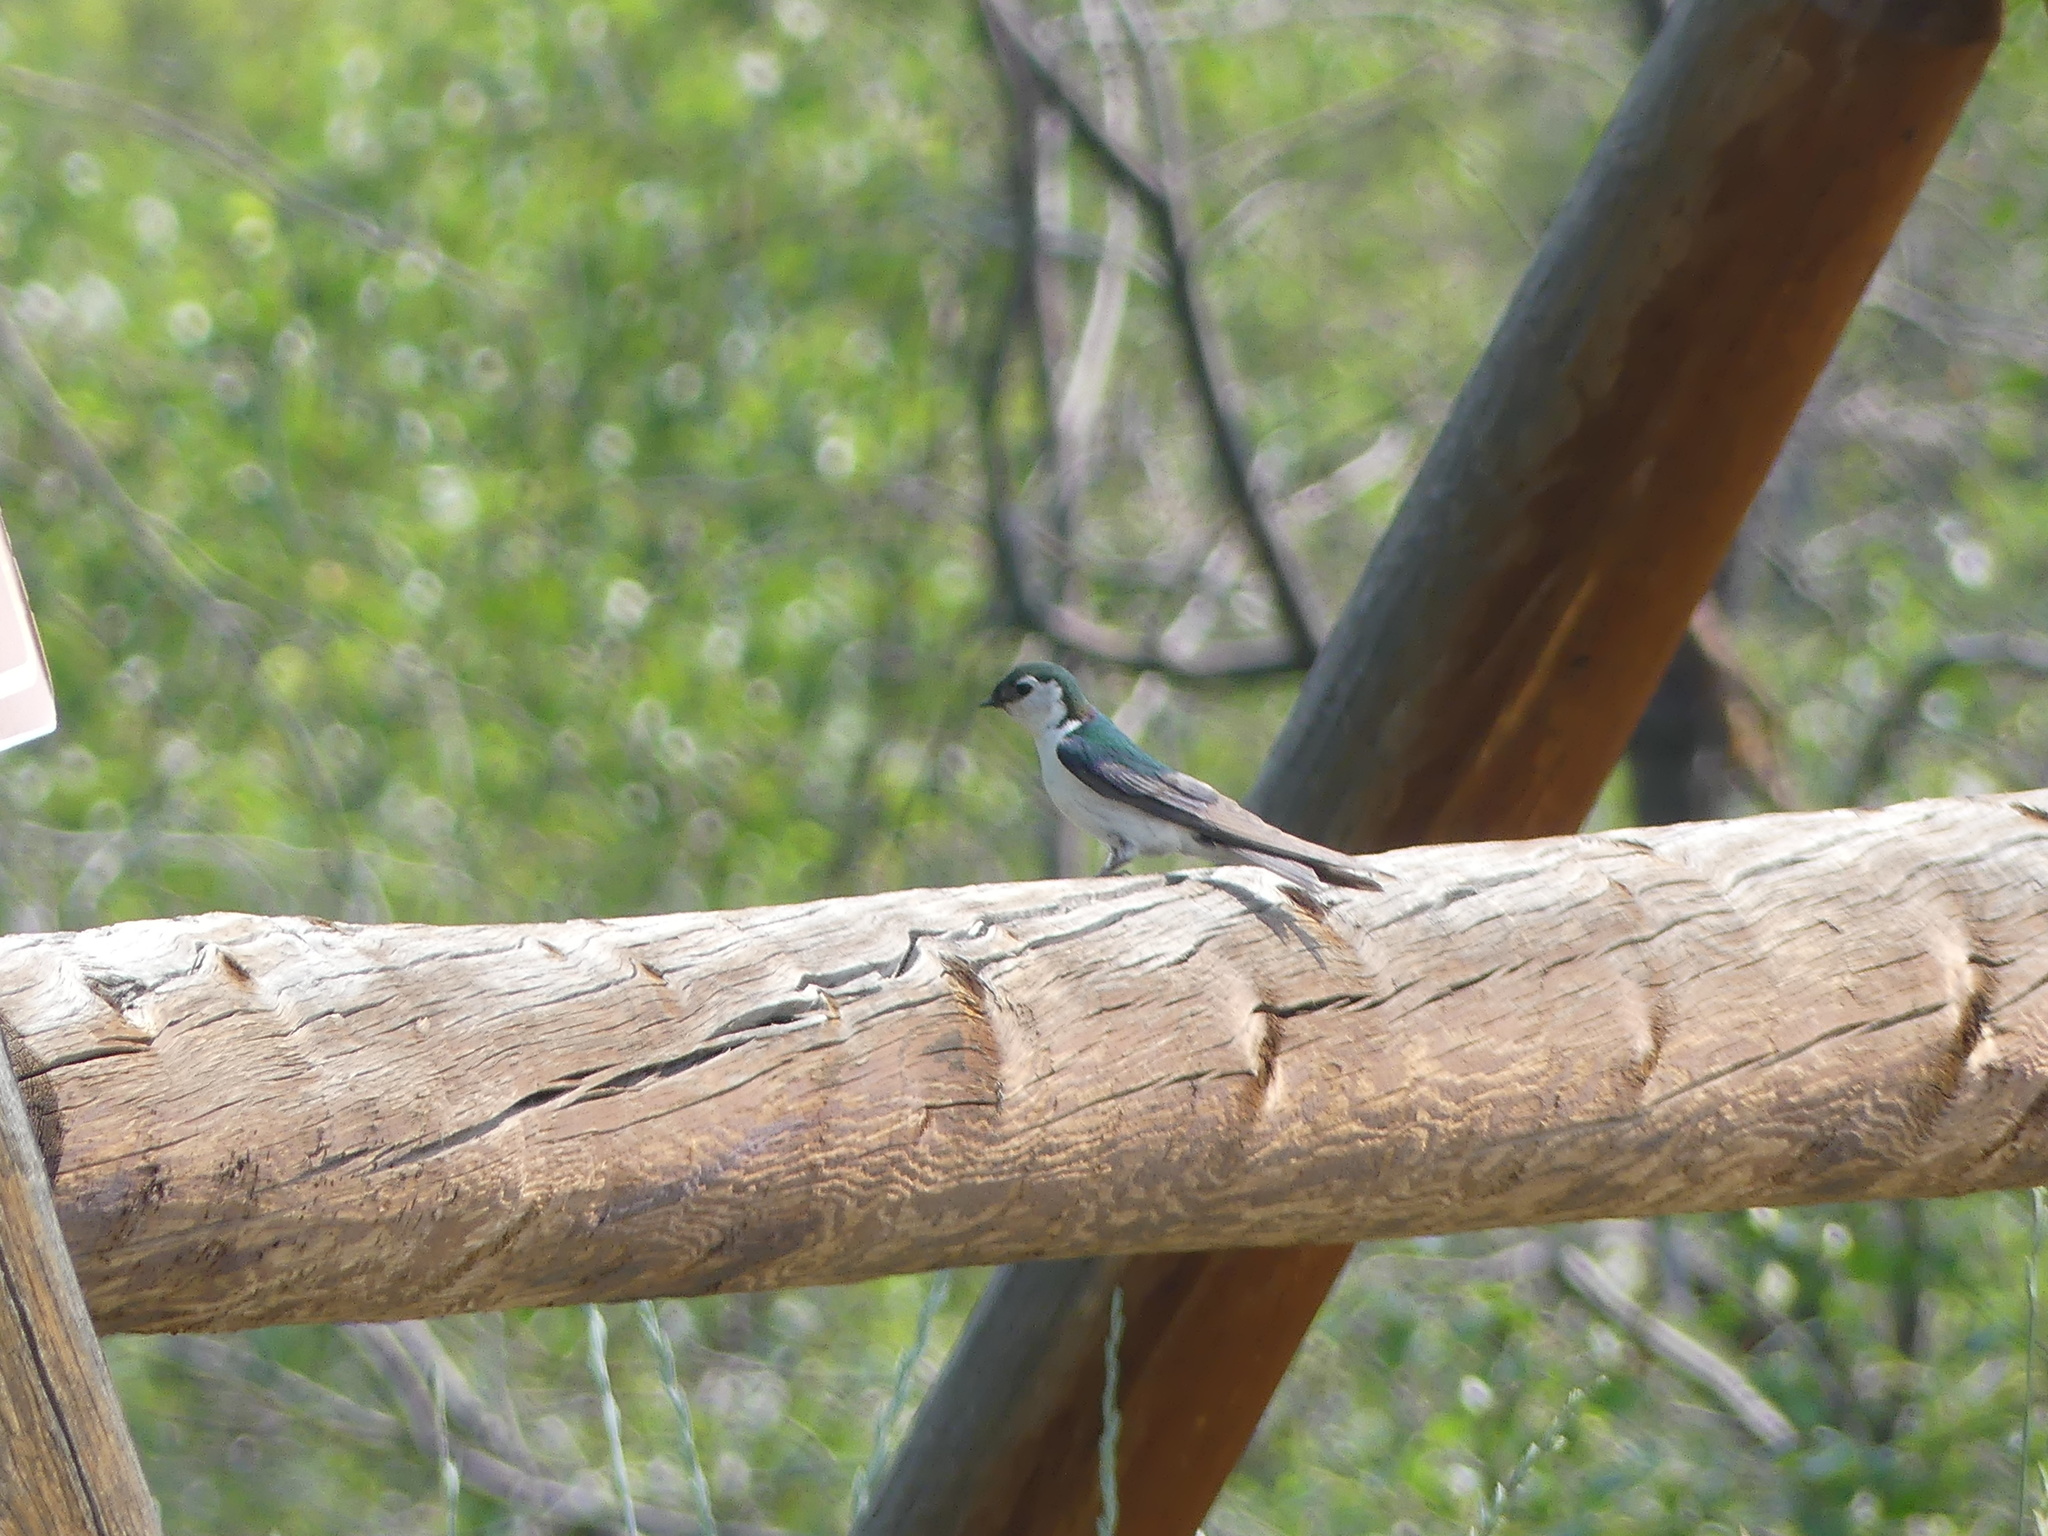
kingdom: Animalia
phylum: Chordata
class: Aves
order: Passeriformes
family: Hirundinidae
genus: Tachycineta
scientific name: Tachycineta thalassina
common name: Violet-green swallow
